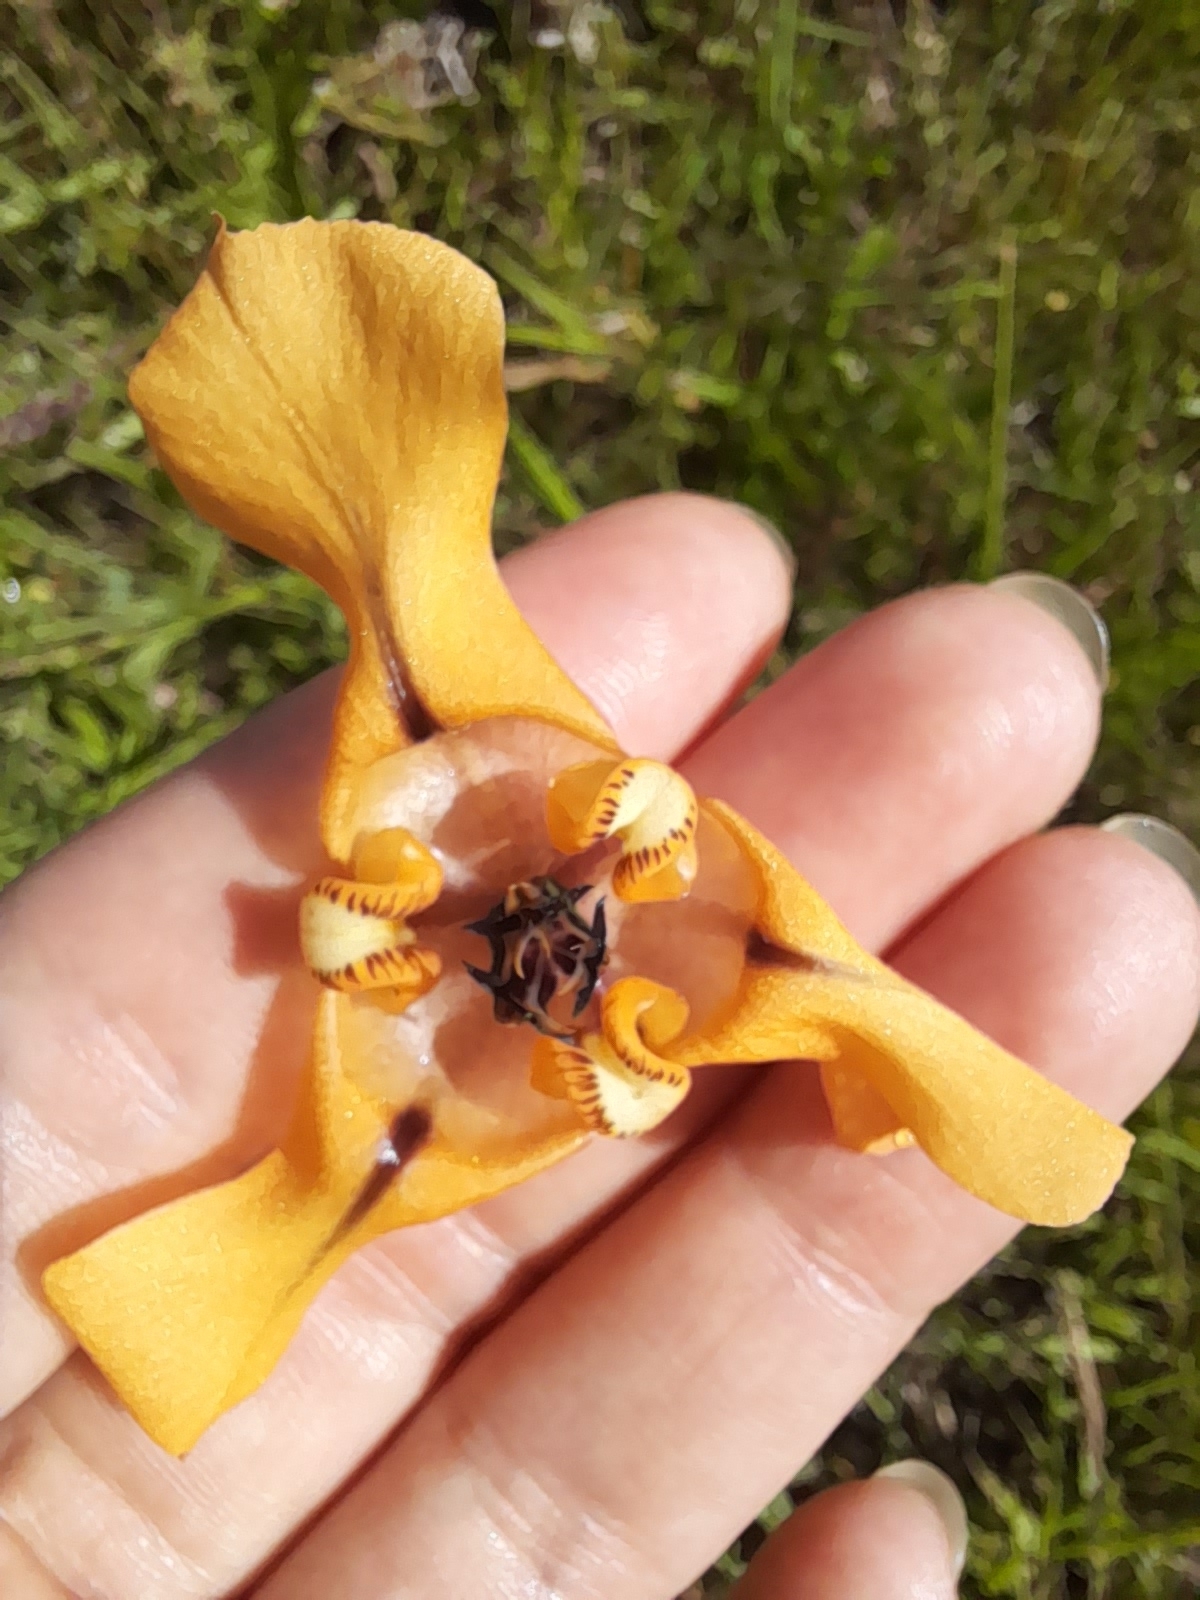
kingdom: Plantae
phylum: Tracheophyta
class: Liliopsida
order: Asparagales
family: Iridaceae
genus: Cypella
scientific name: Cypella herbertii
